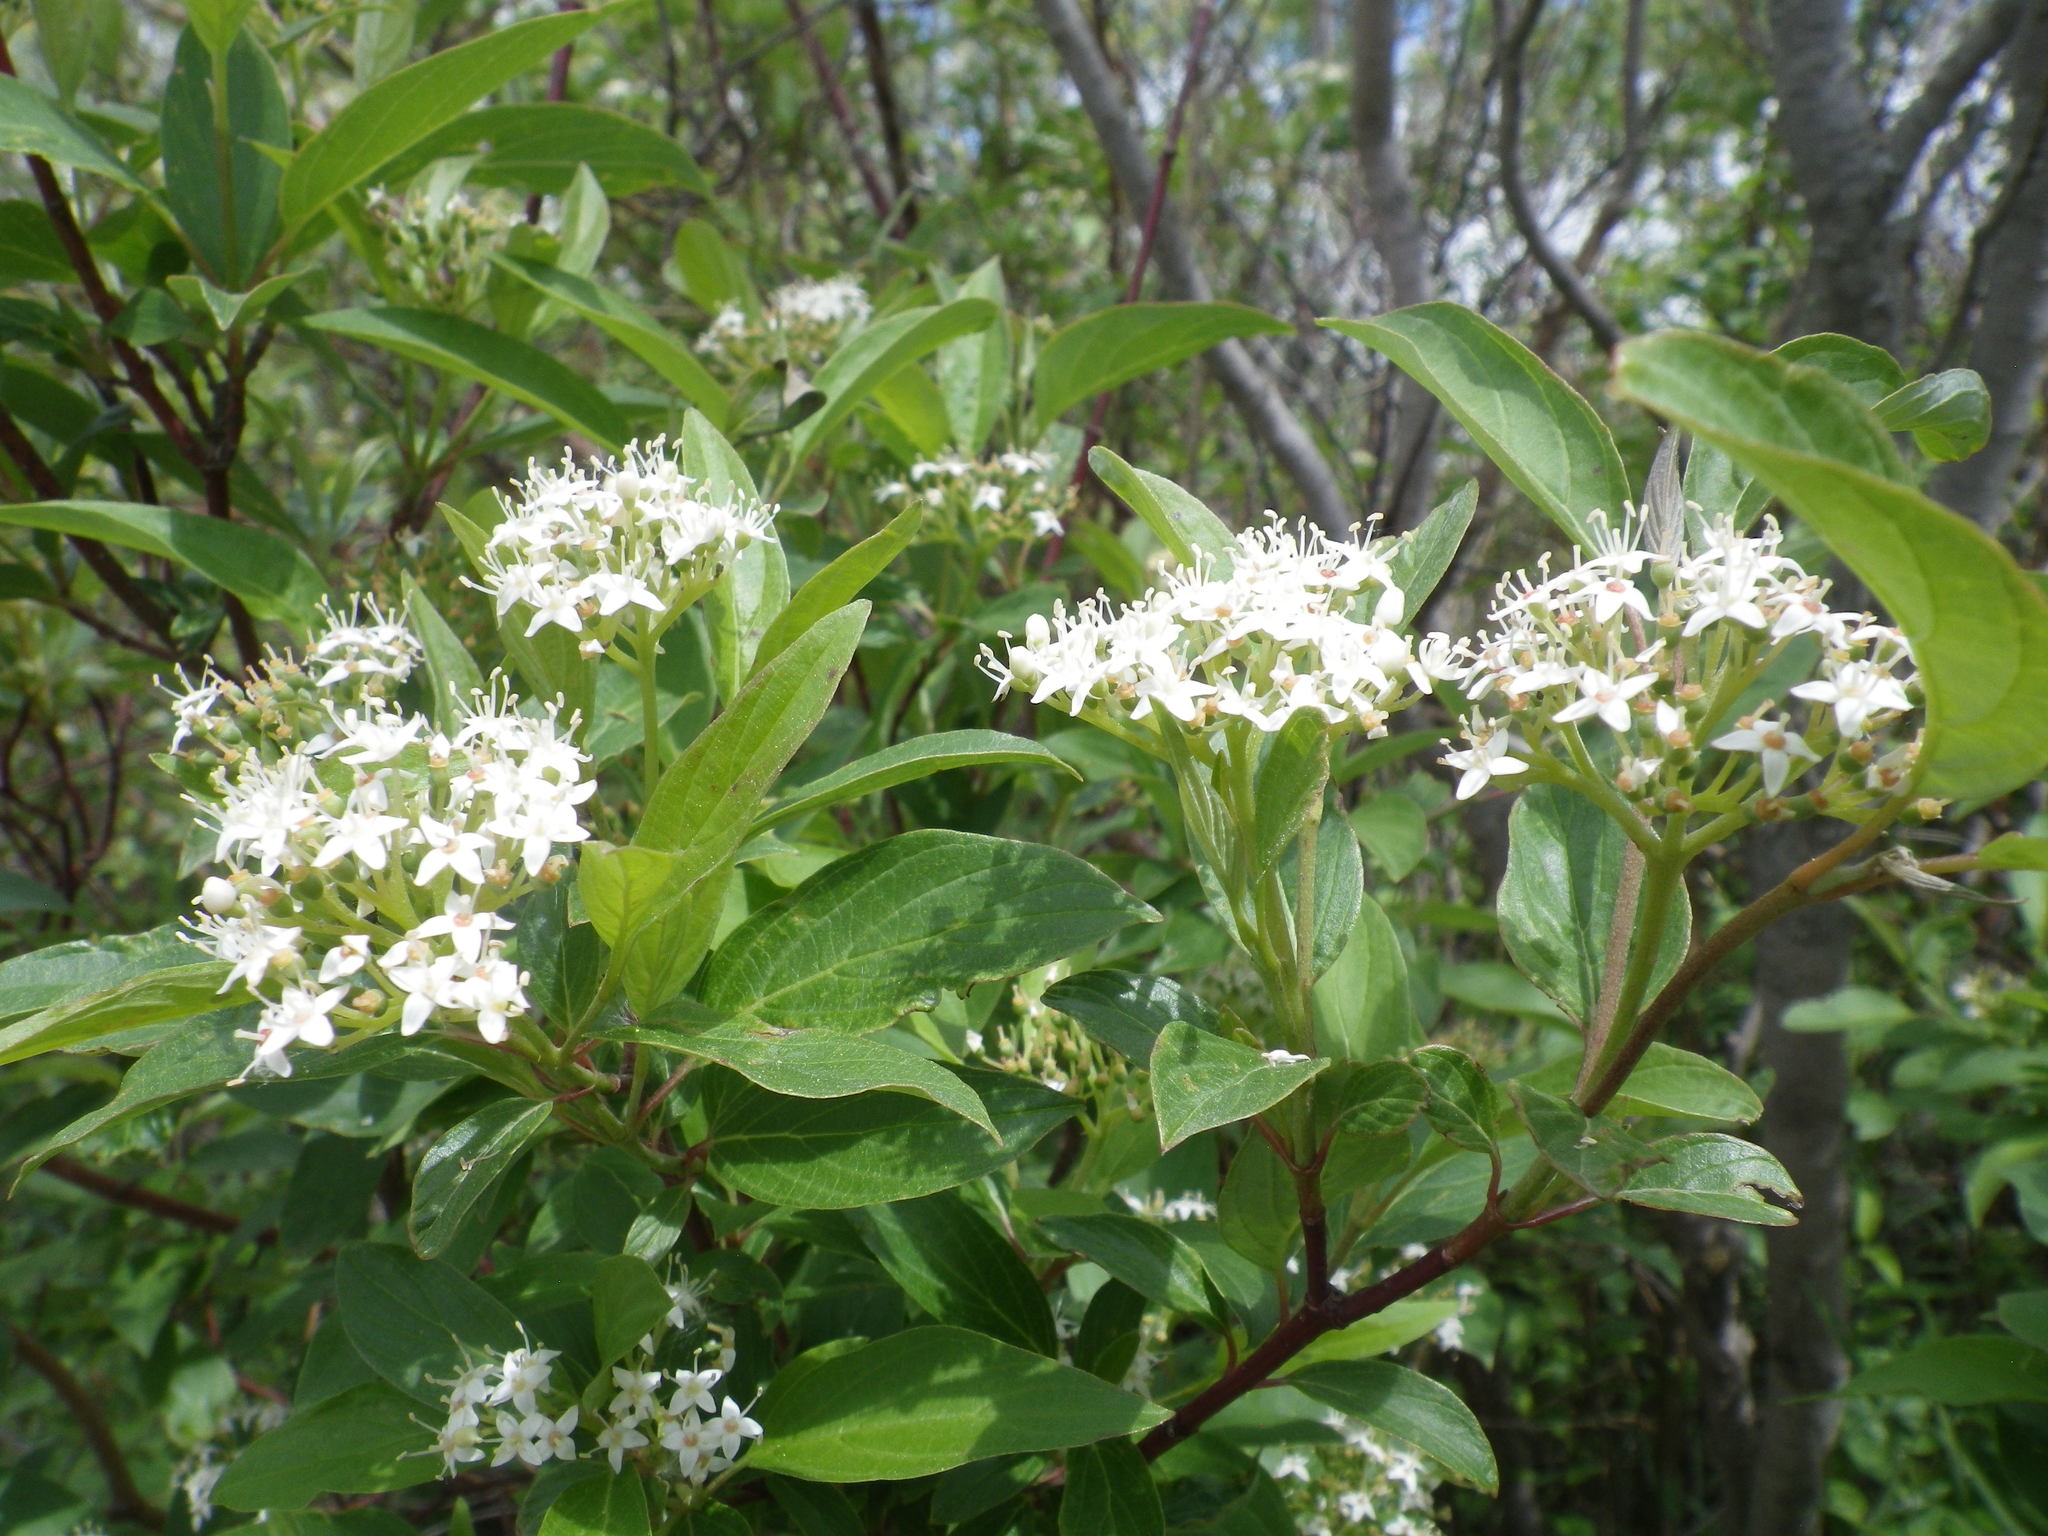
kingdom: Plantae
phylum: Tracheophyta
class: Magnoliopsida
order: Cornales
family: Cornaceae
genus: Cornus
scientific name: Cornus sericea
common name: Red-osier dogwood
